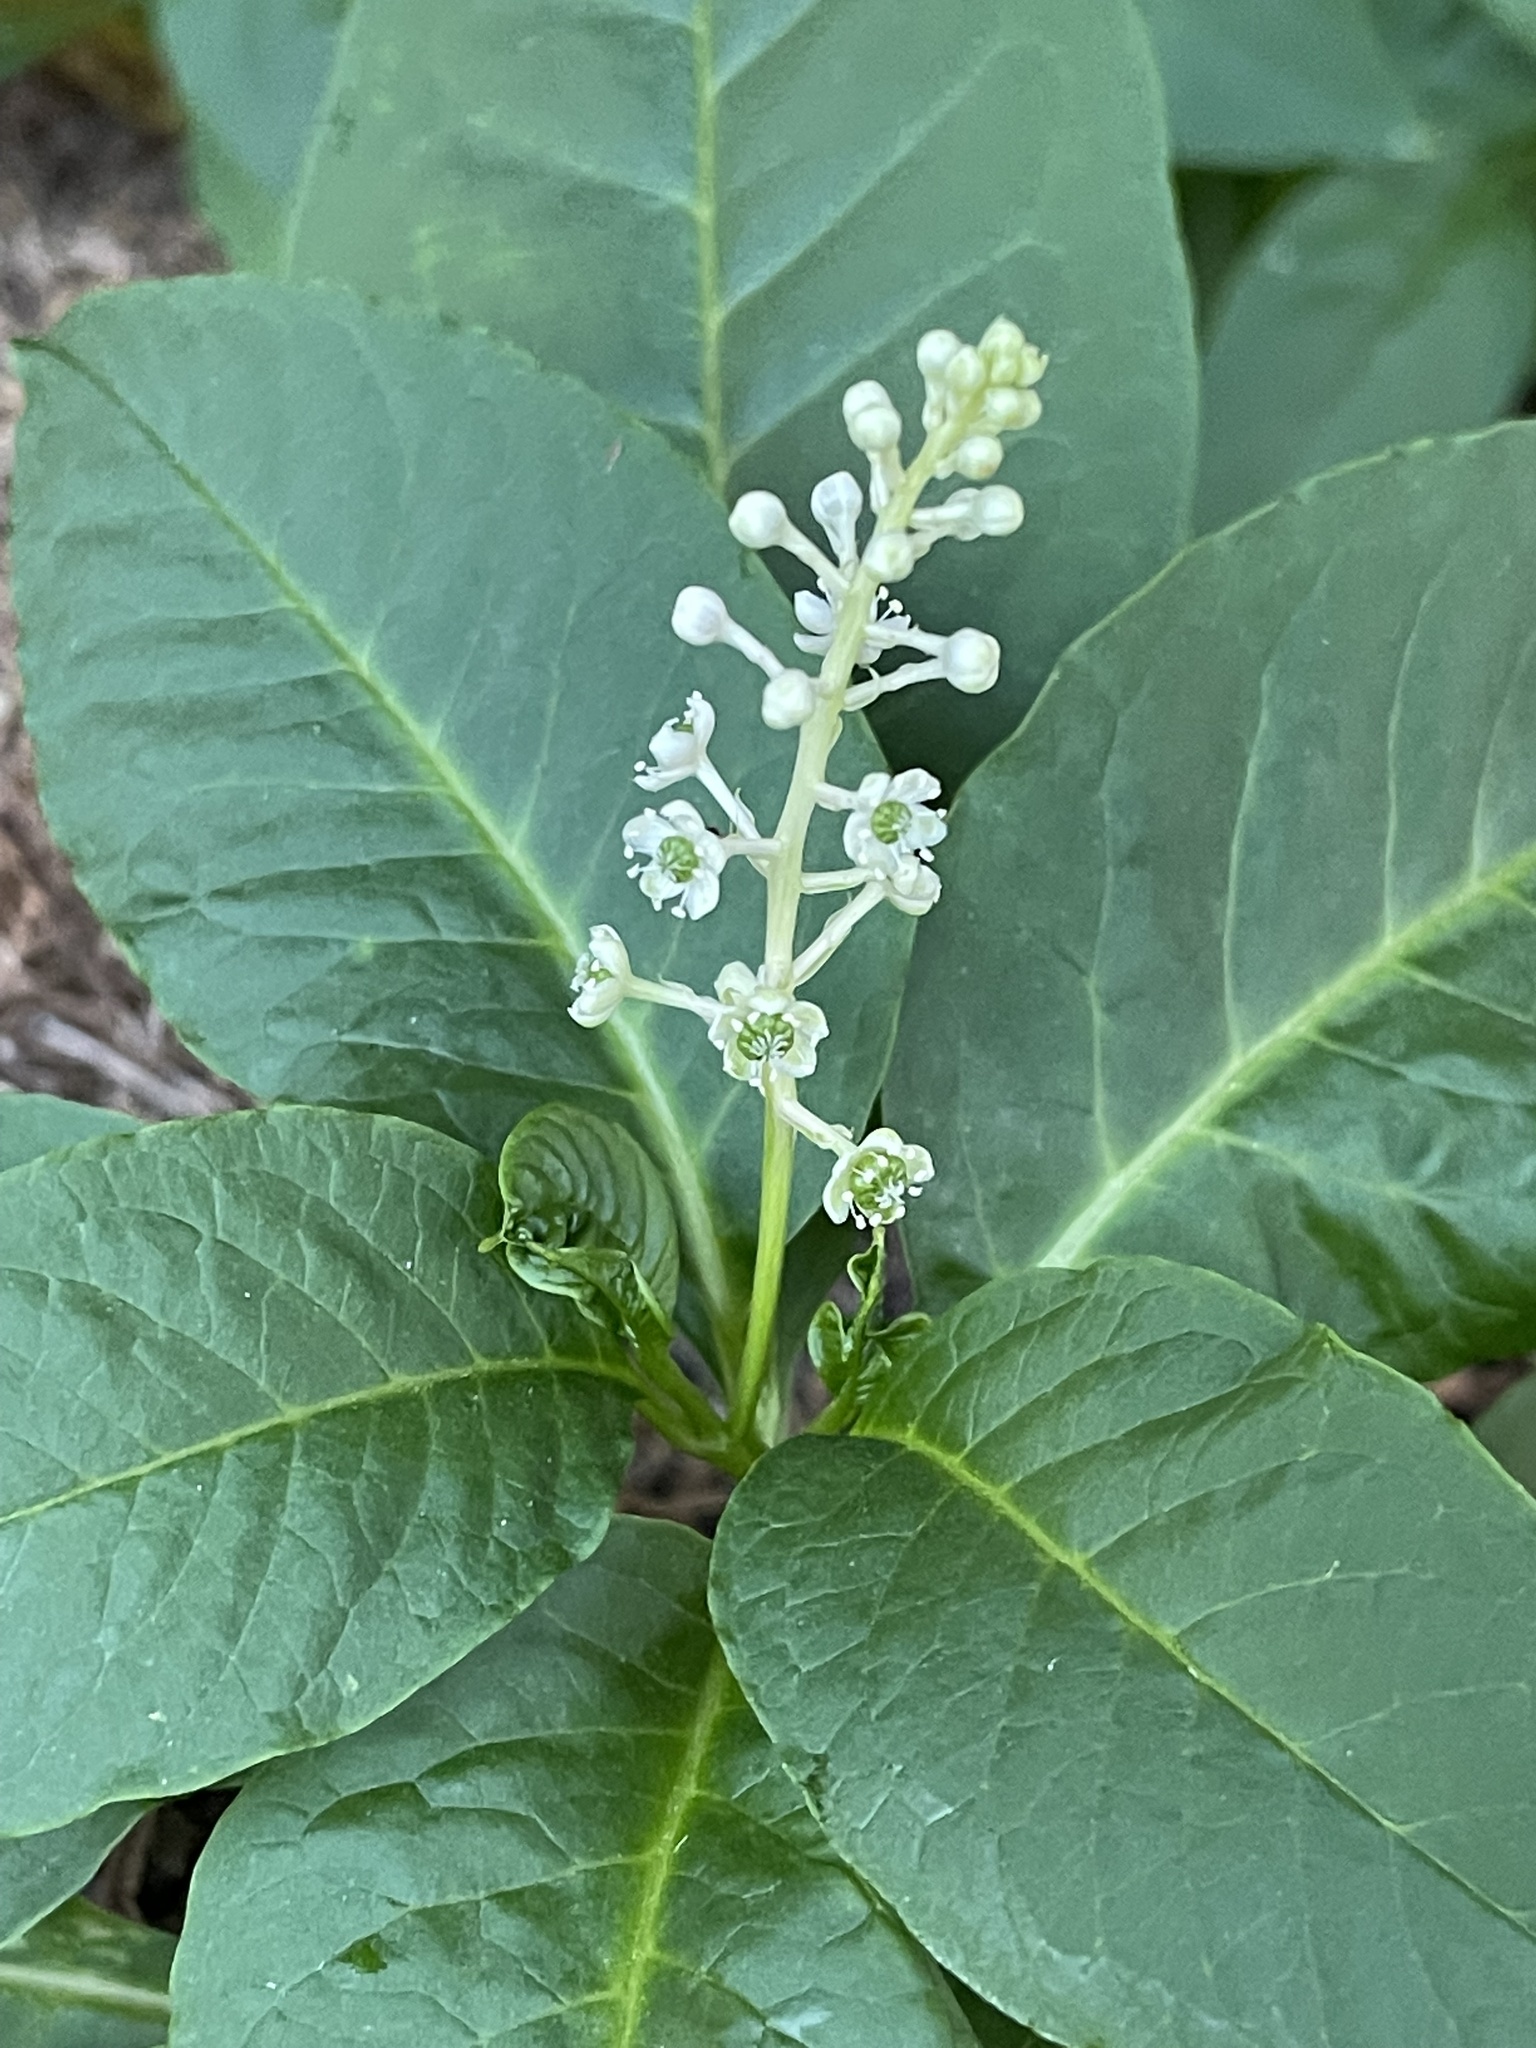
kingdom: Plantae
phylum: Tracheophyta
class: Magnoliopsida
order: Caryophyllales
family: Phytolaccaceae
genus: Phytolacca
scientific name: Phytolacca americana
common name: American pokeweed
